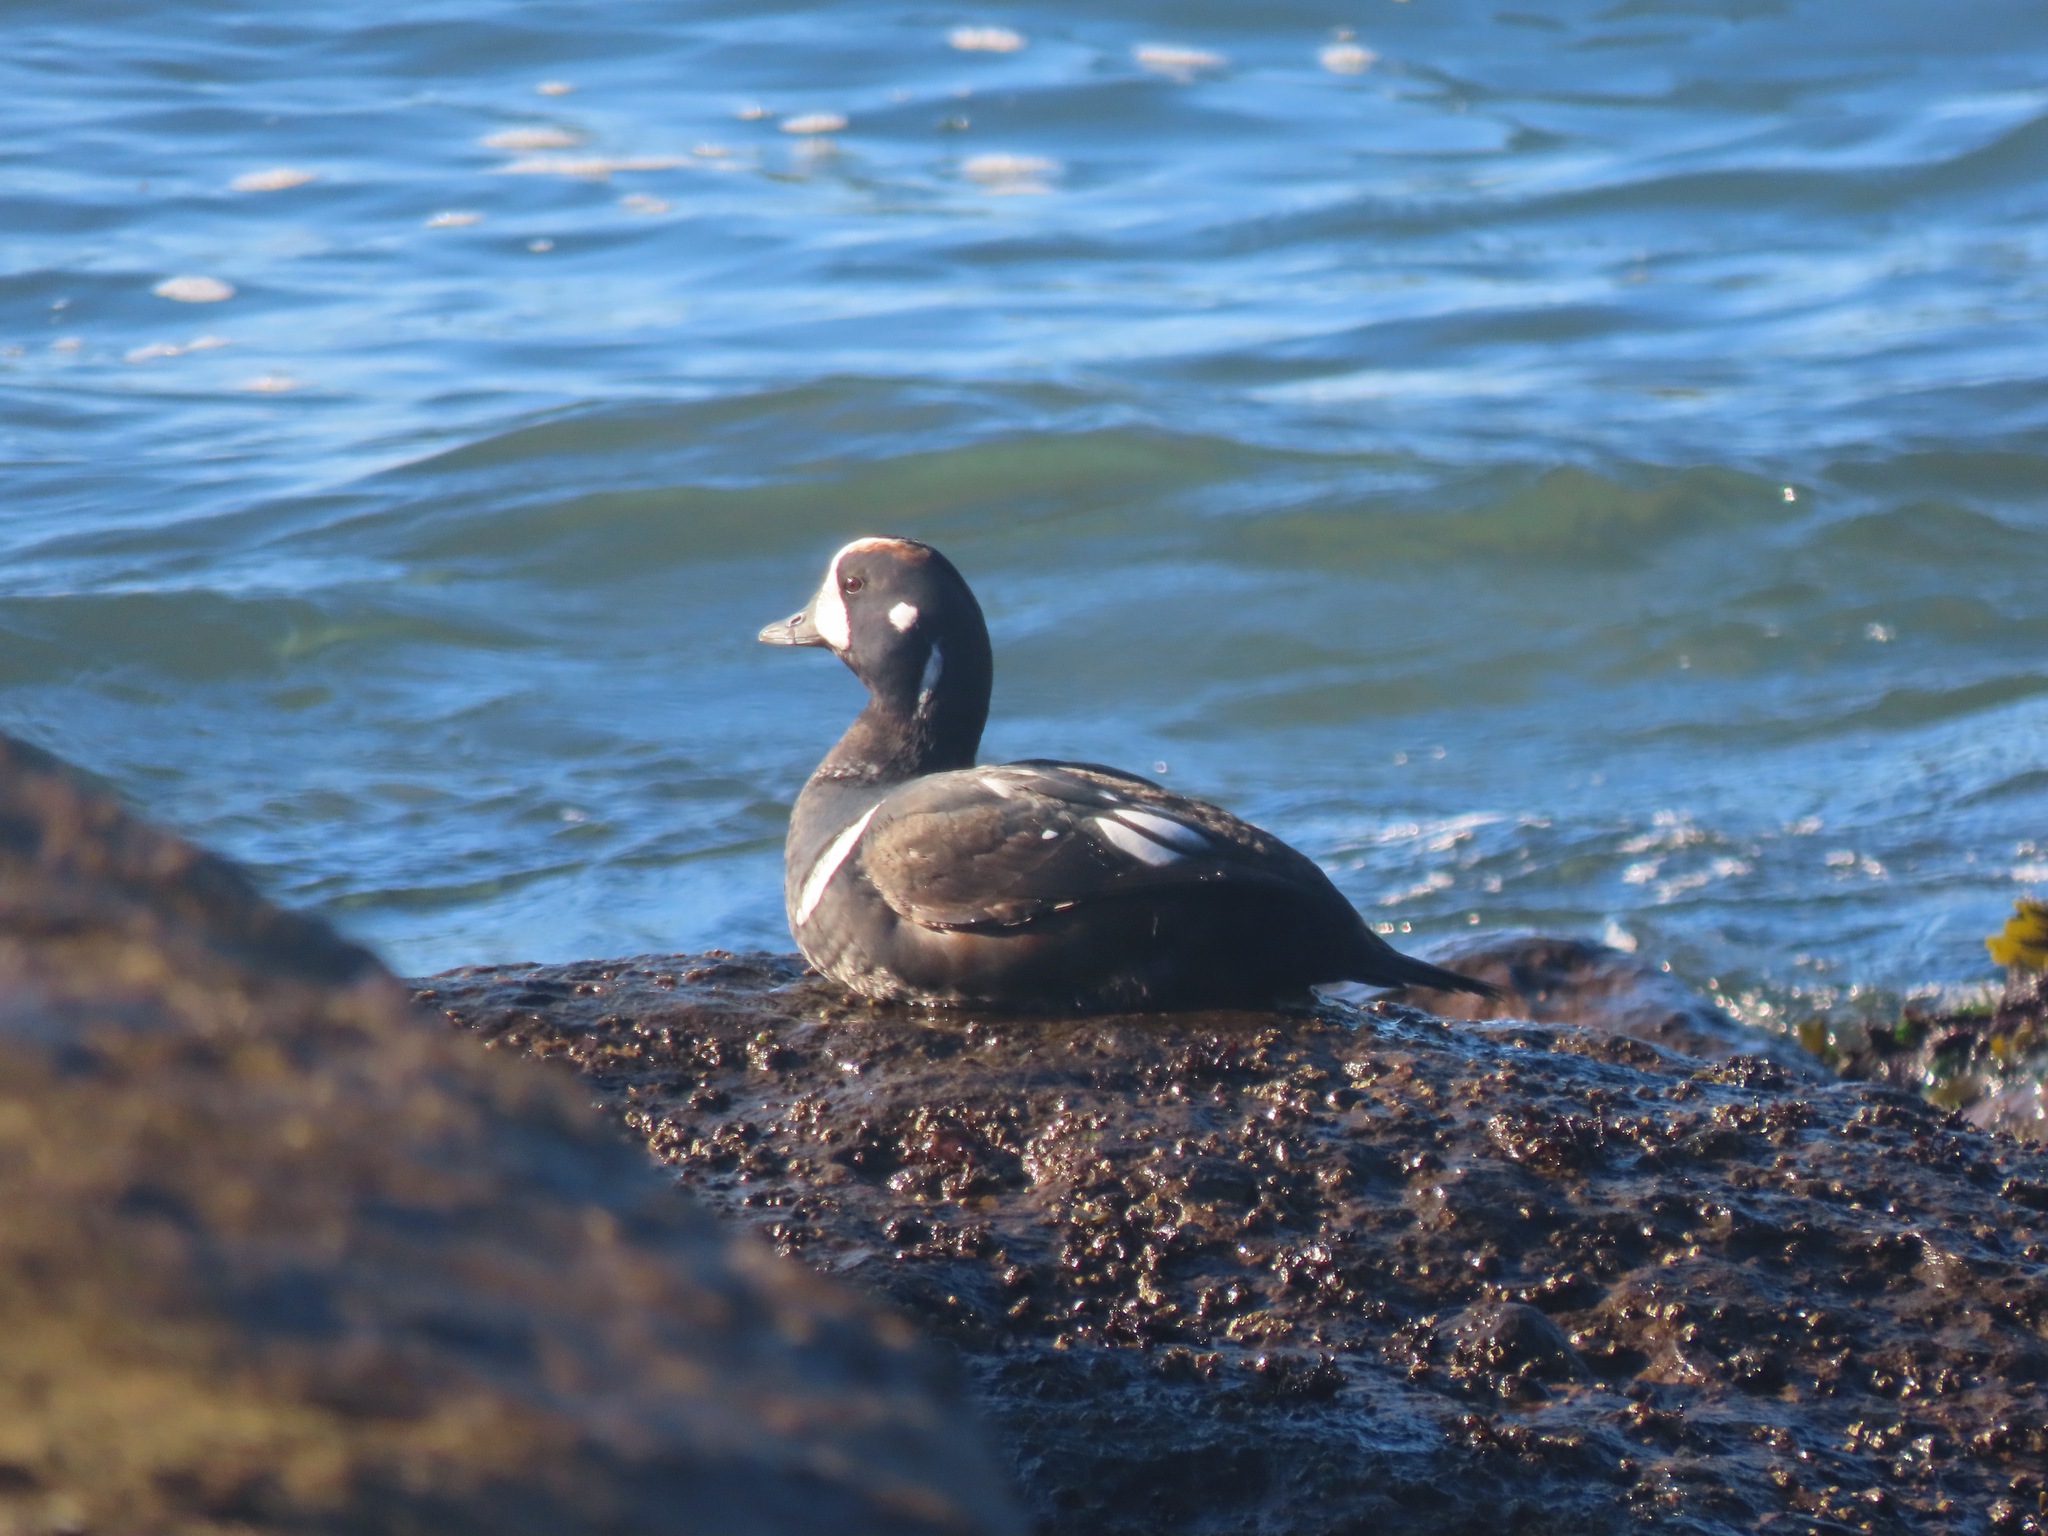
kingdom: Animalia
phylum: Chordata
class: Aves
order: Anseriformes
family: Anatidae
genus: Histrionicus
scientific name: Histrionicus histrionicus
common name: Harlequin duck
